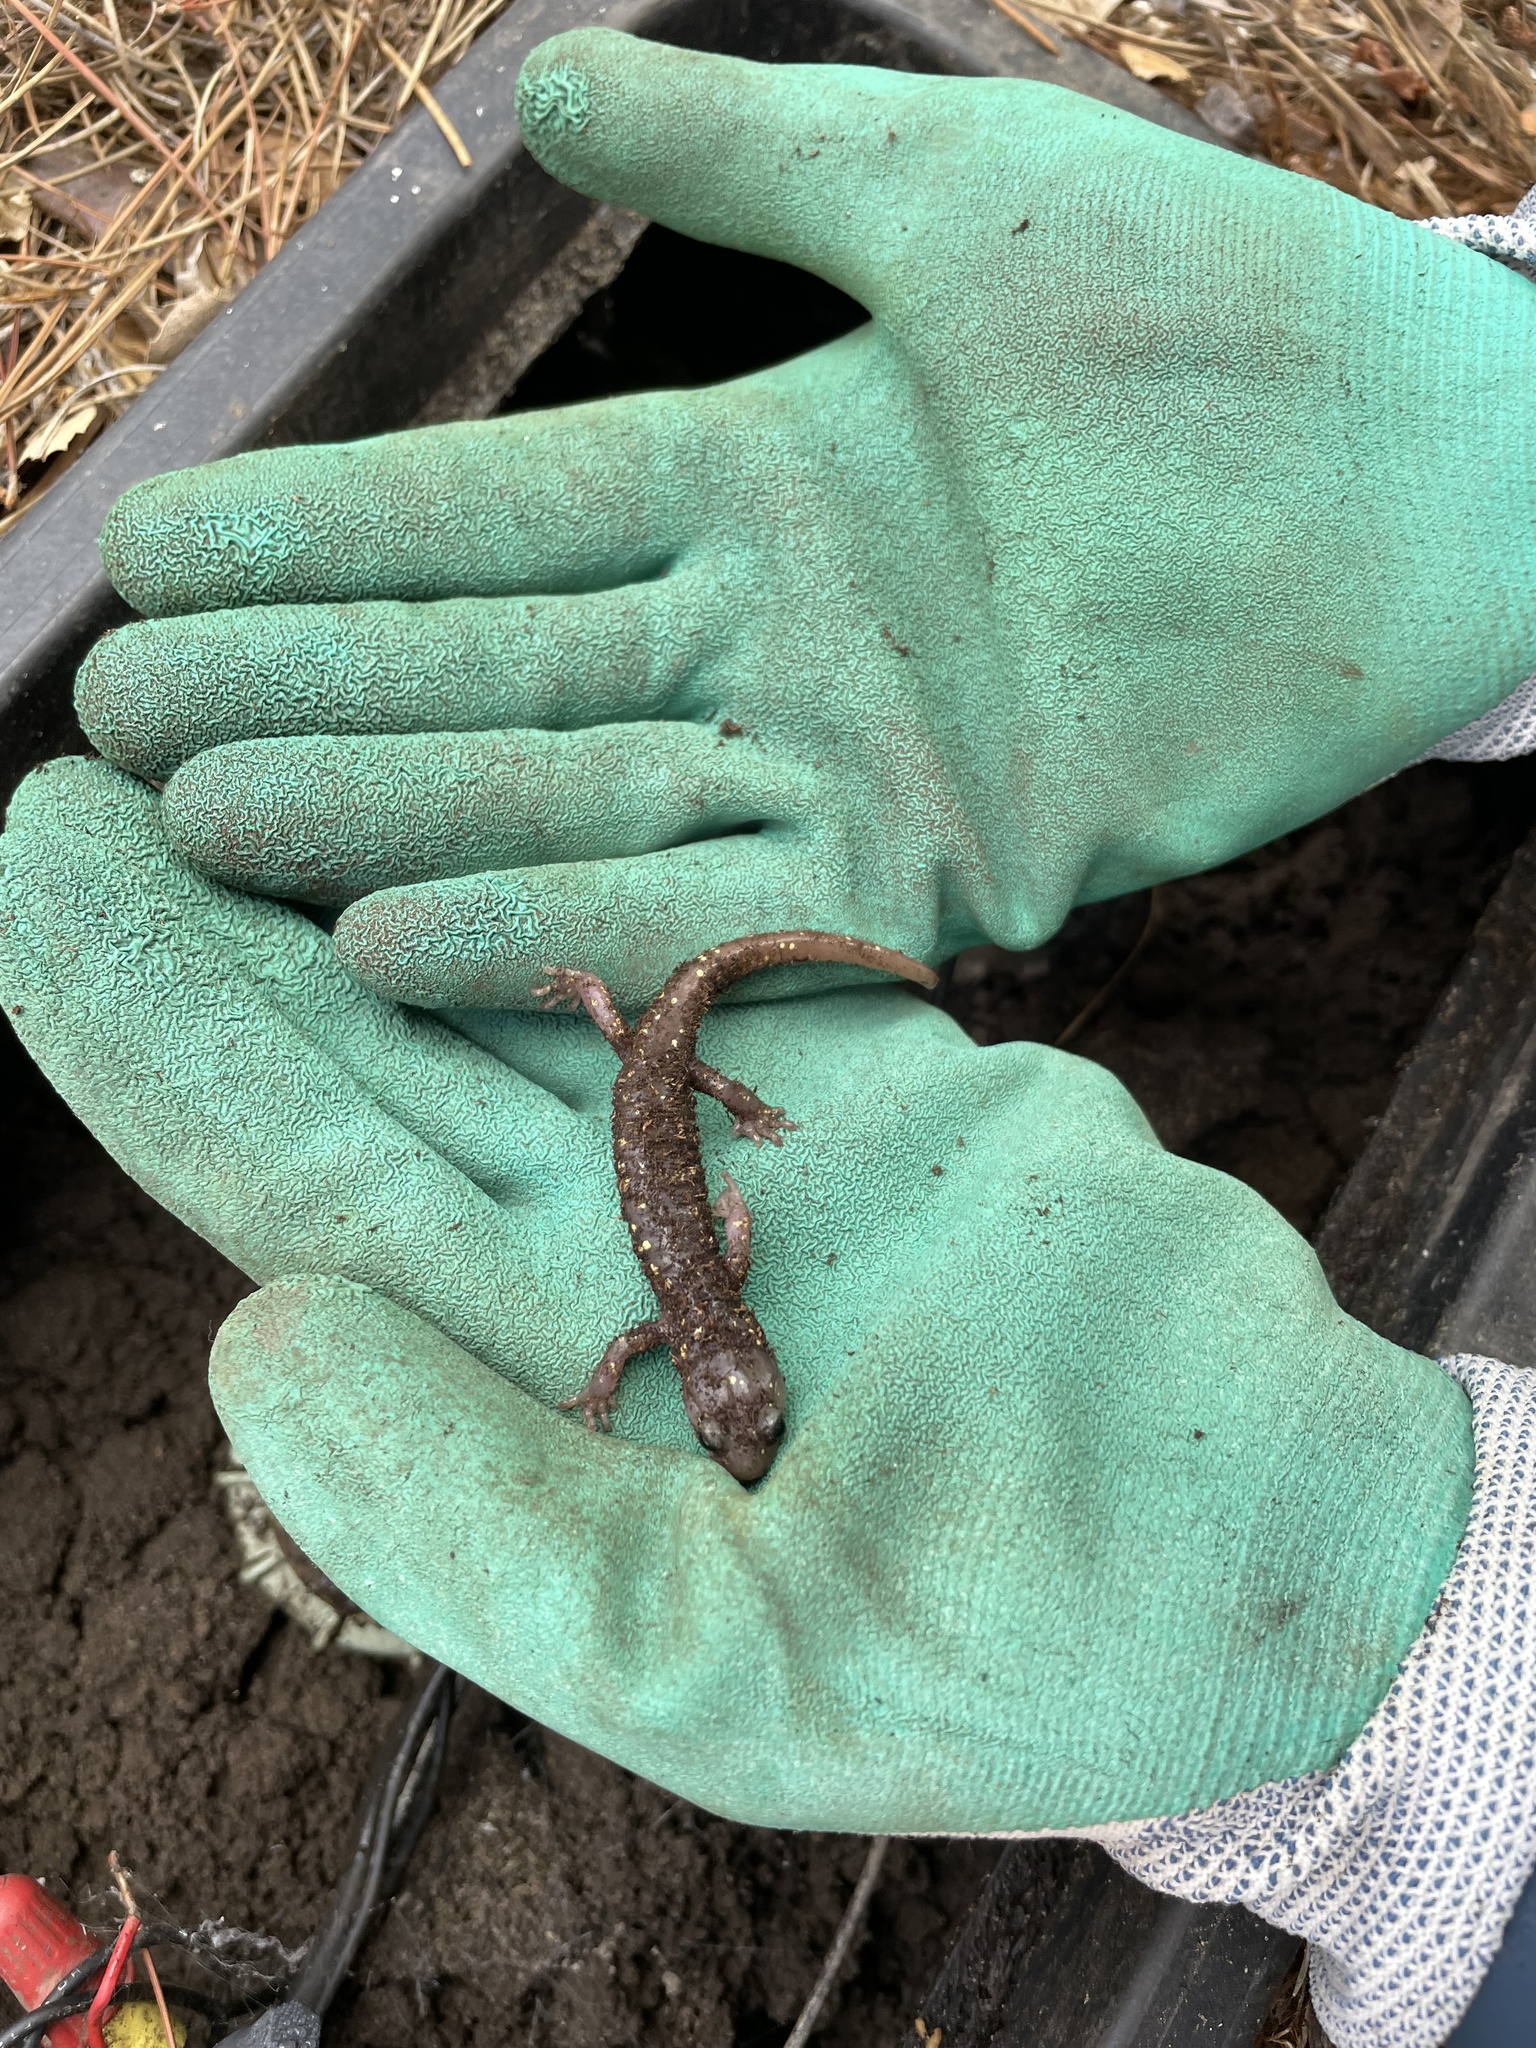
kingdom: Animalia
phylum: Chordata
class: Amphibia
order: Caudata
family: Plethodontidae
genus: Aneides
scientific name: Aneides lugubris
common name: Arboreal salamander
